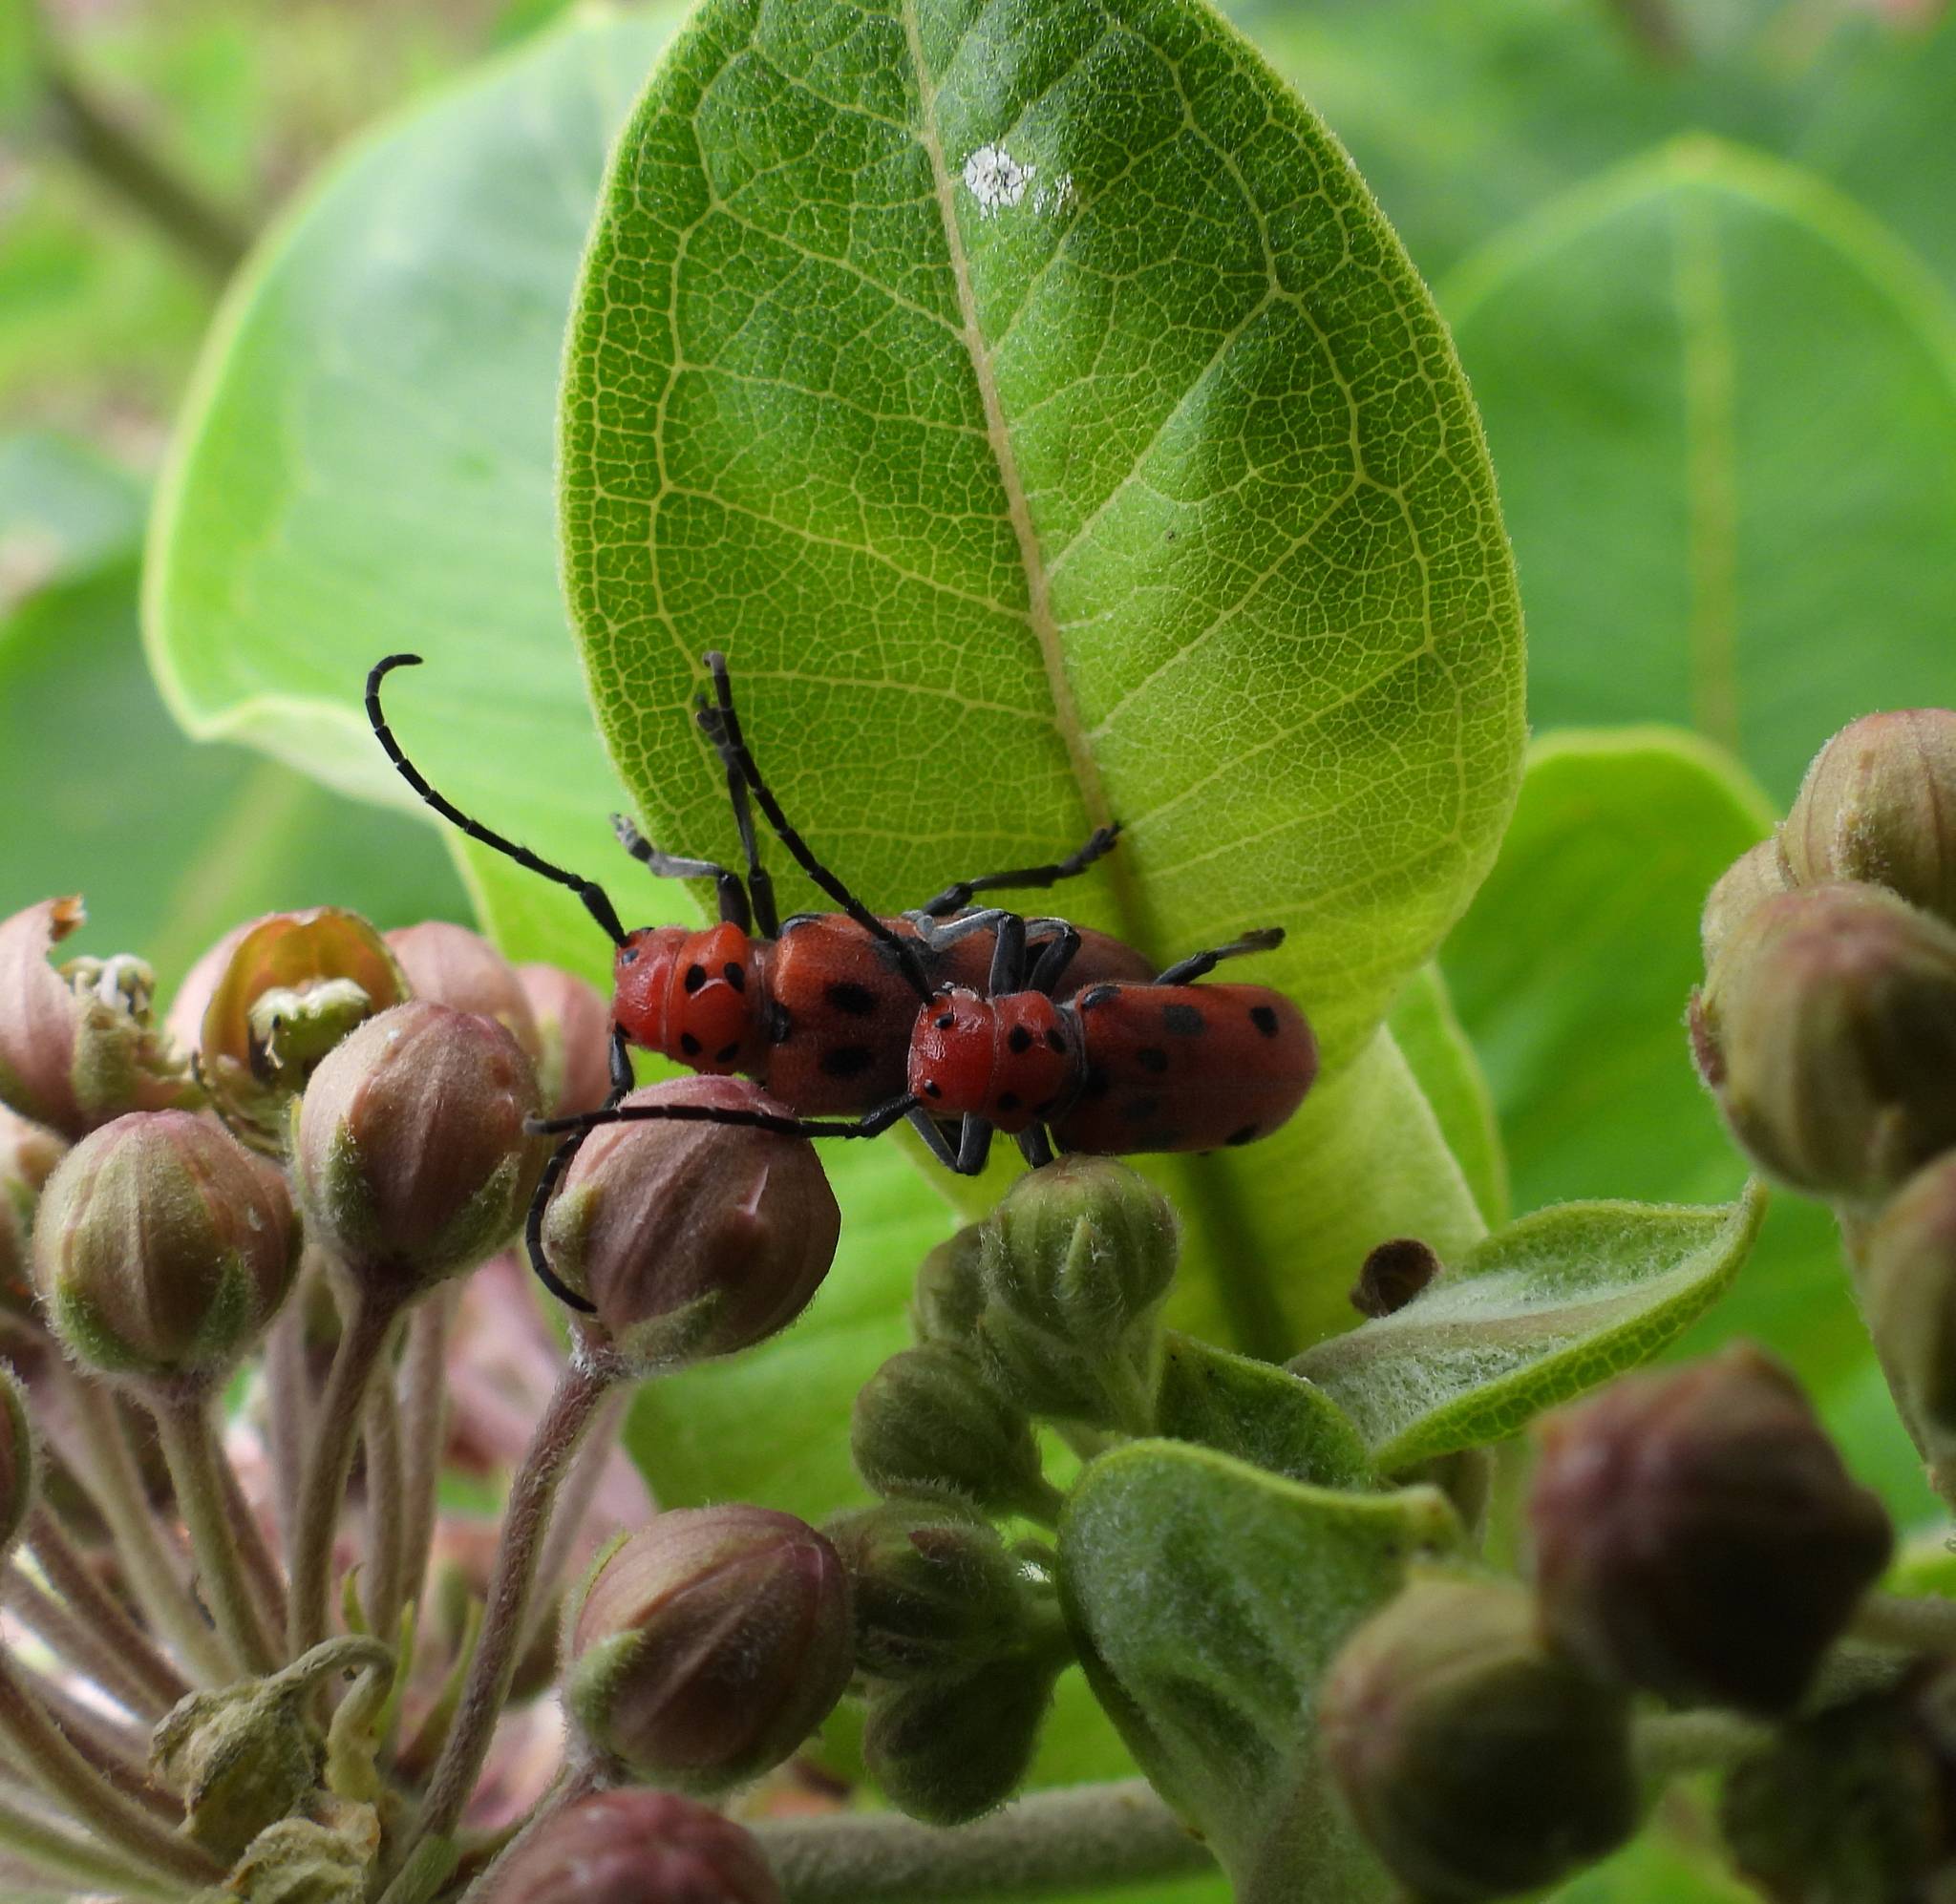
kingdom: Animalia
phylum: Arthropoda
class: Insecta
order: Coleoptera
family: Cerambycidae
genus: Tetraopes
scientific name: Tetraopes tetrophthalmus
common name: Red milkweed beetle
